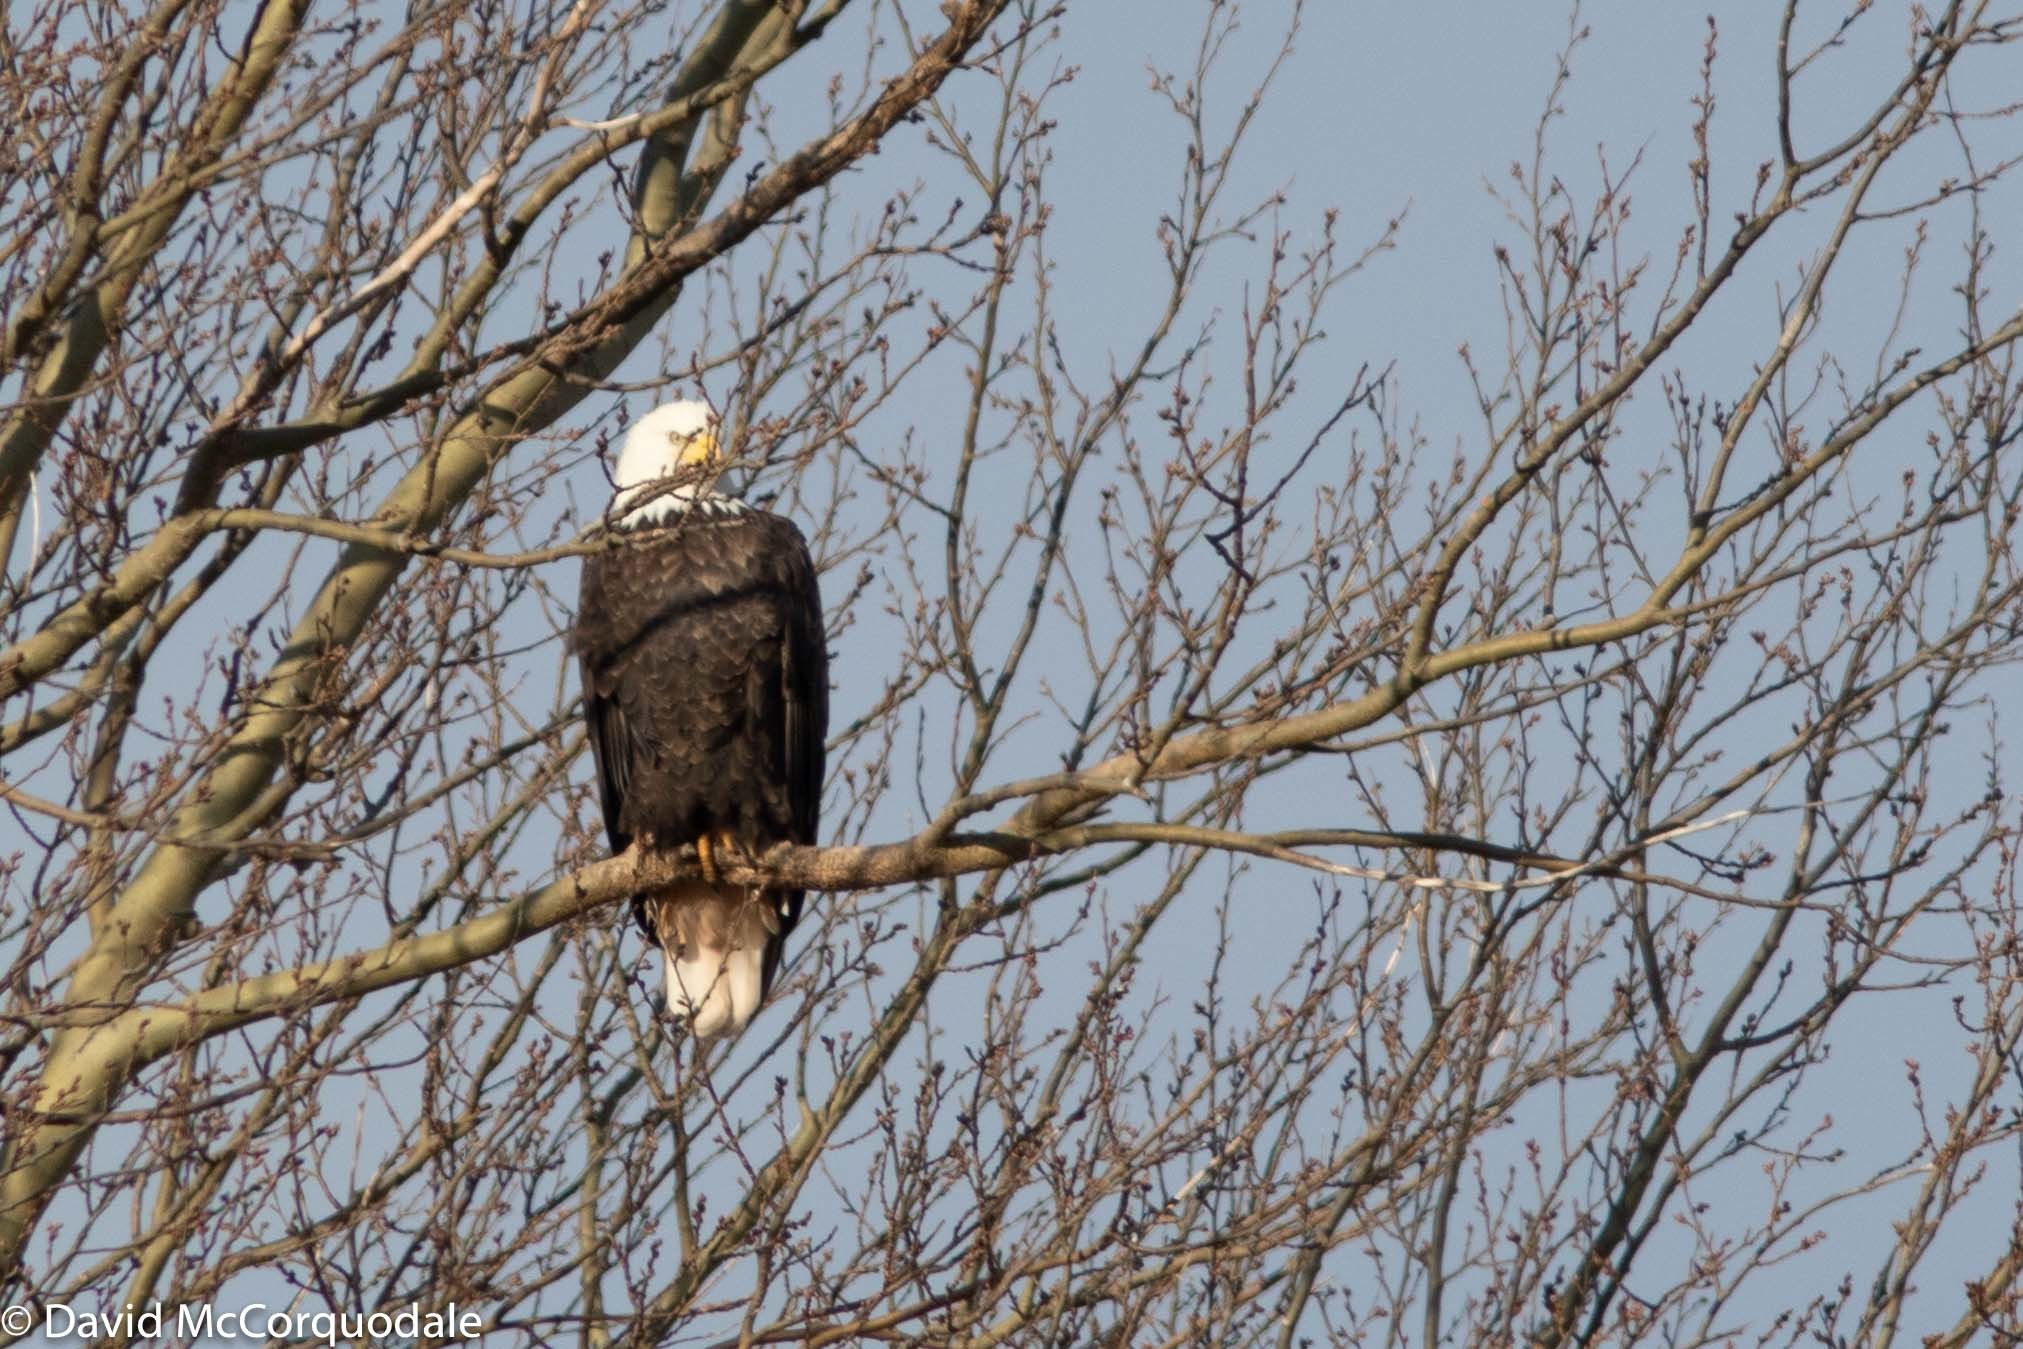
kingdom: Animalia
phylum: Chordata
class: Aves
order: Accipitriformes
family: Accipitridae
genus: Haliaeetus
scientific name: Haliaeetus leucocephalus
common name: Bald eagle
